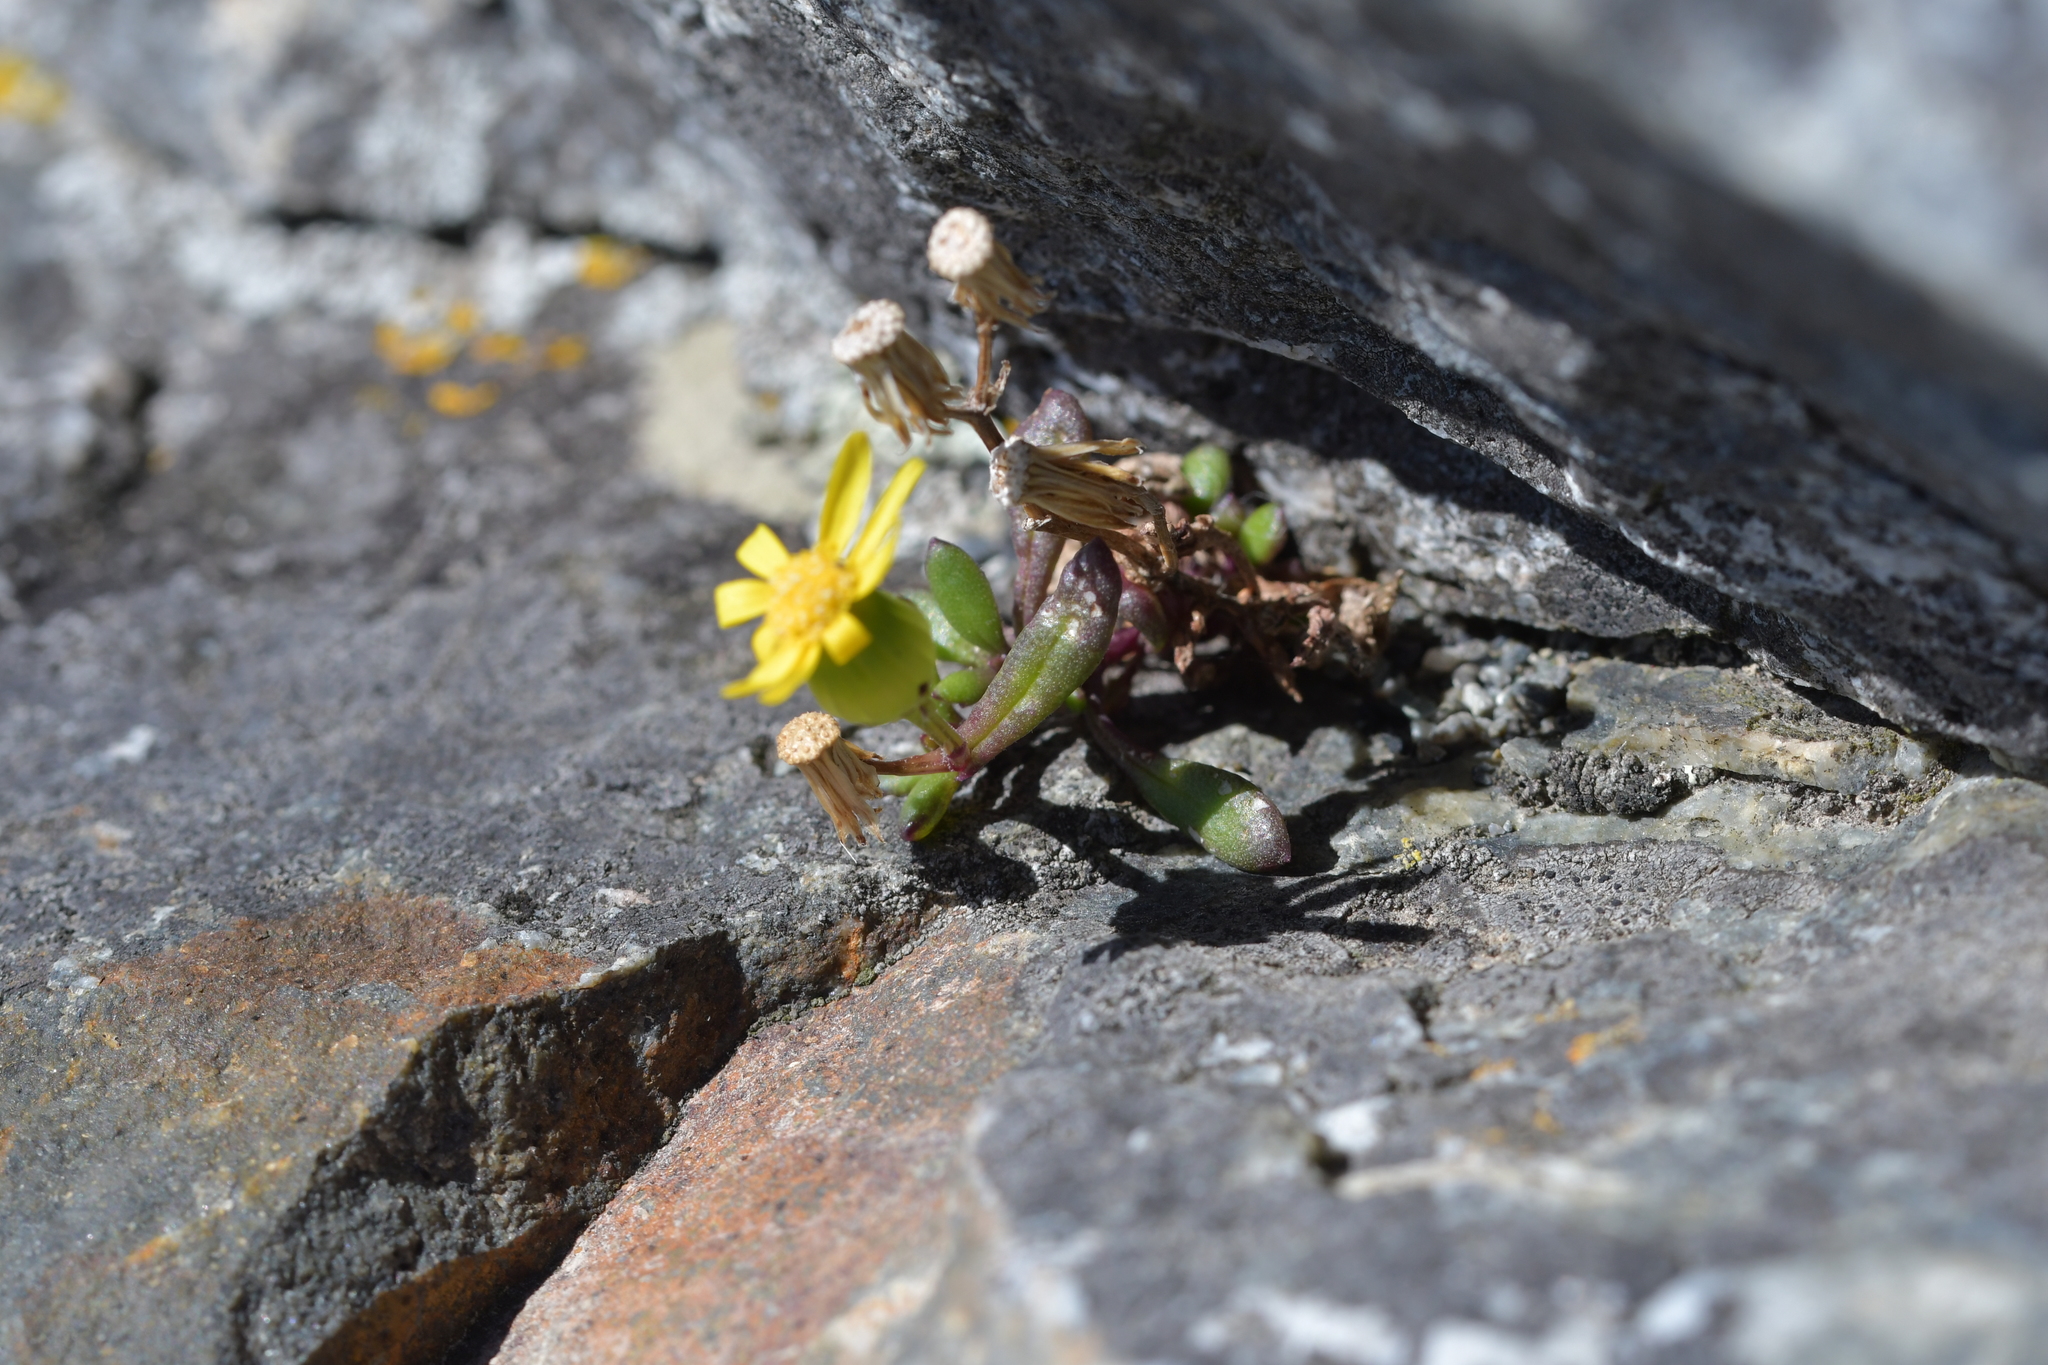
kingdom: Plantae
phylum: Tracheophyta
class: Magnoliopsida
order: Asterales
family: Asteraceae
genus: Senecio
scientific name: Senecio lautus
